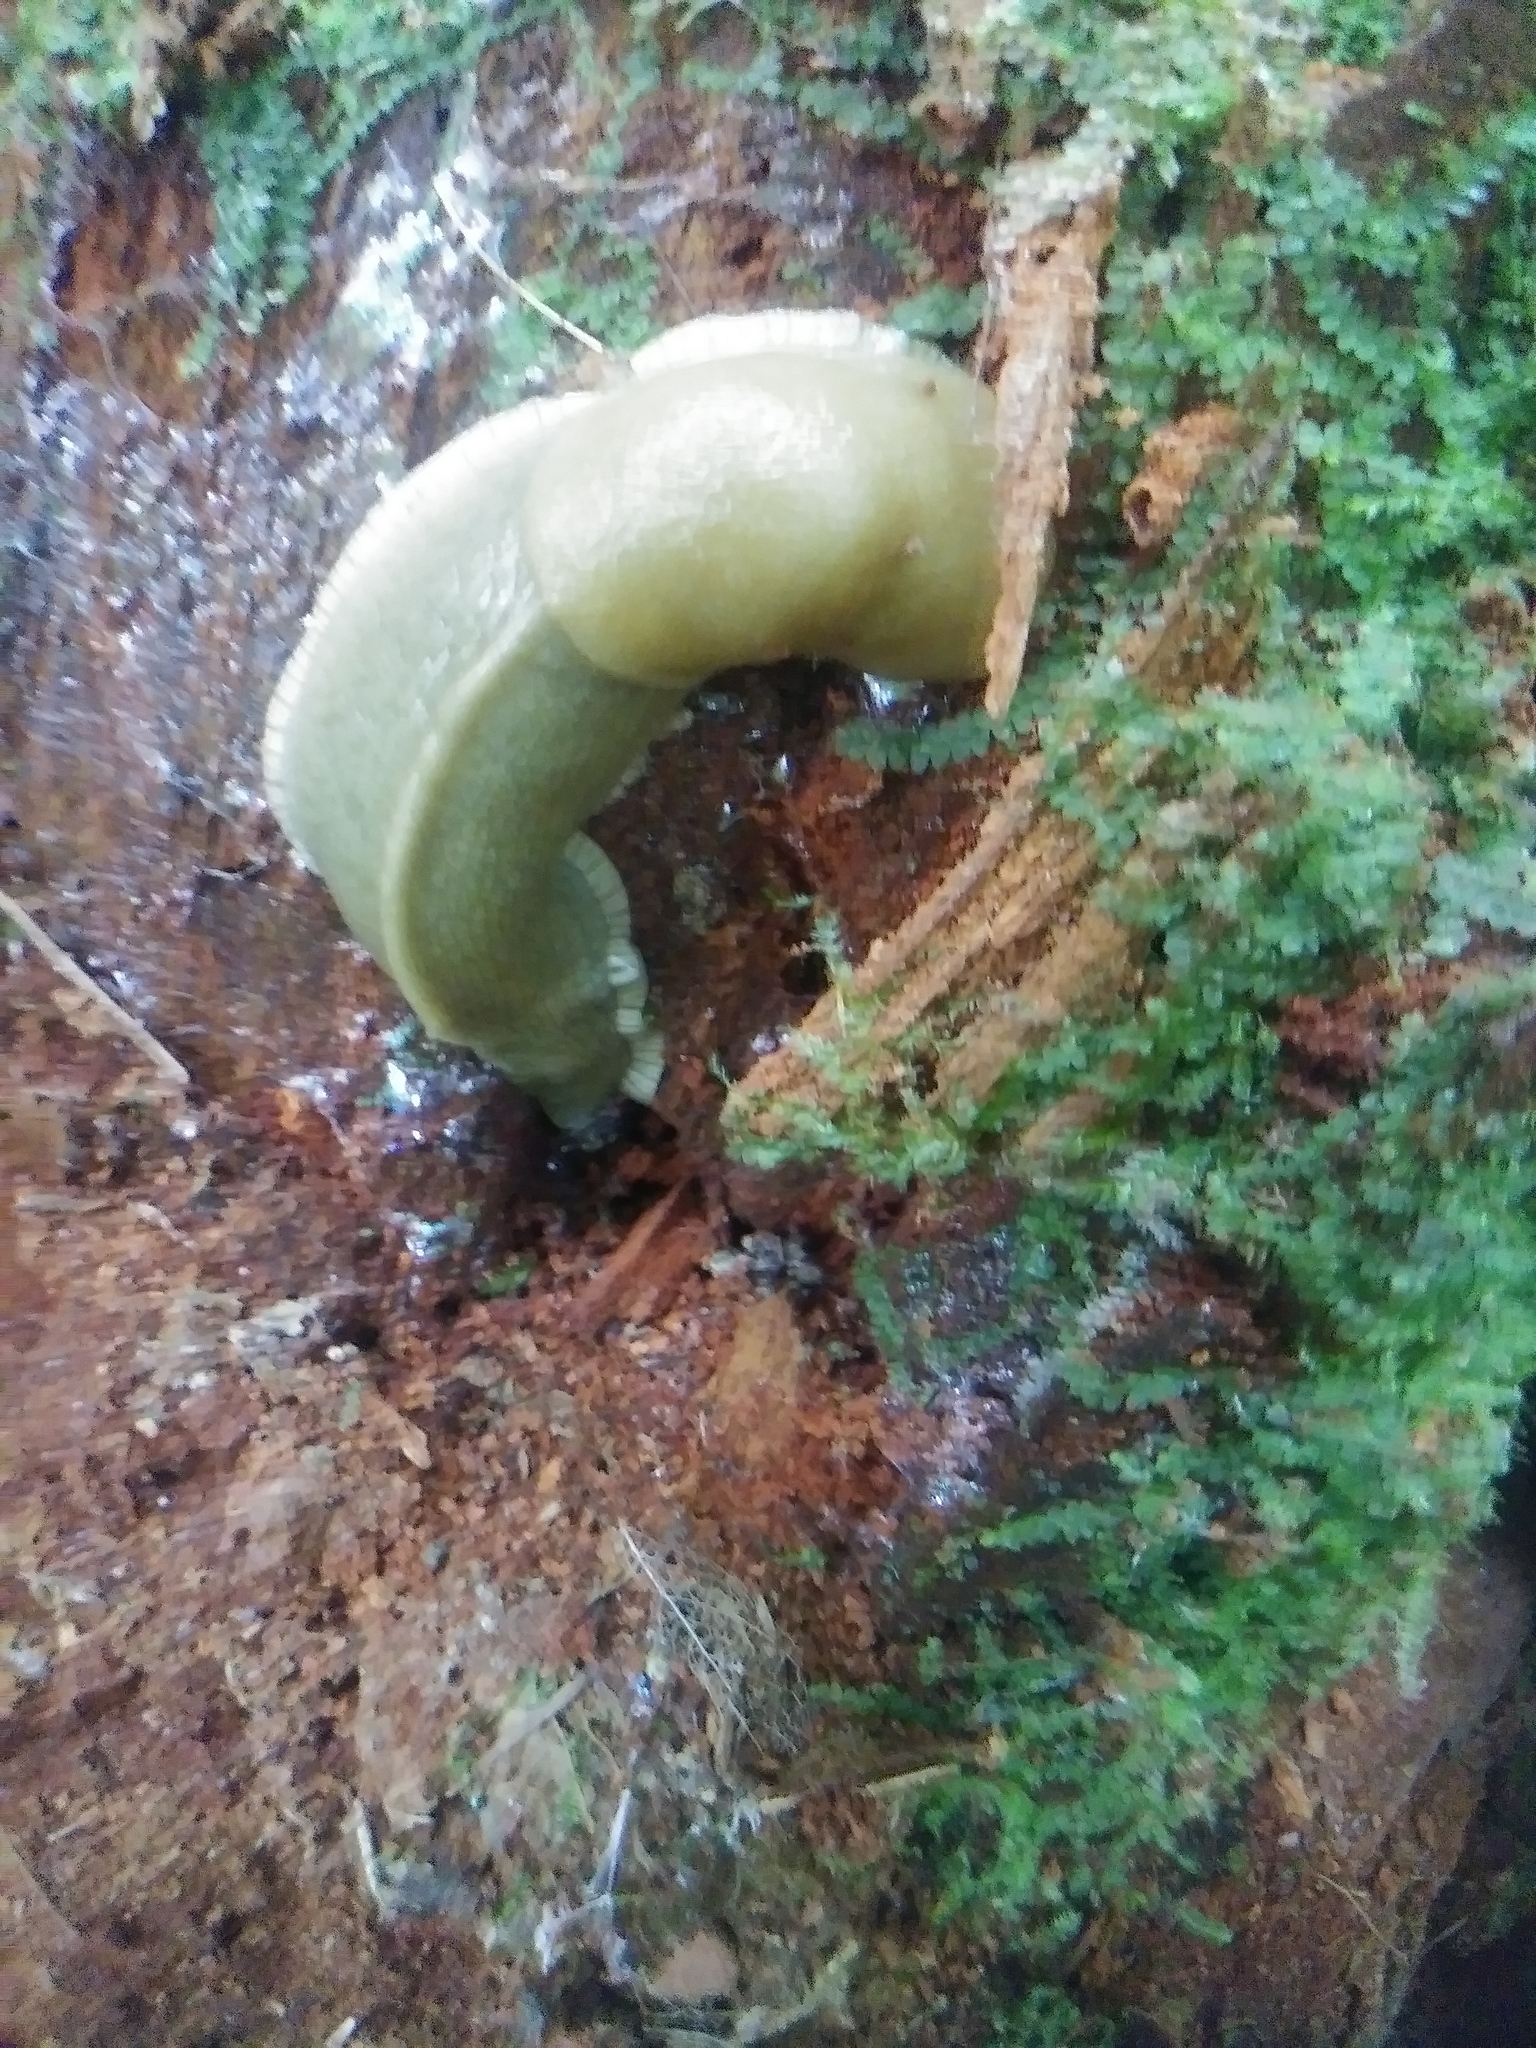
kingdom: Animalia
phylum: Mollusca
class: Gastropoda
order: Stylommatophora
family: Ariolimacidae
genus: Ariolimax
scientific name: Ariolimax columbianus
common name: Pacific banana slug
